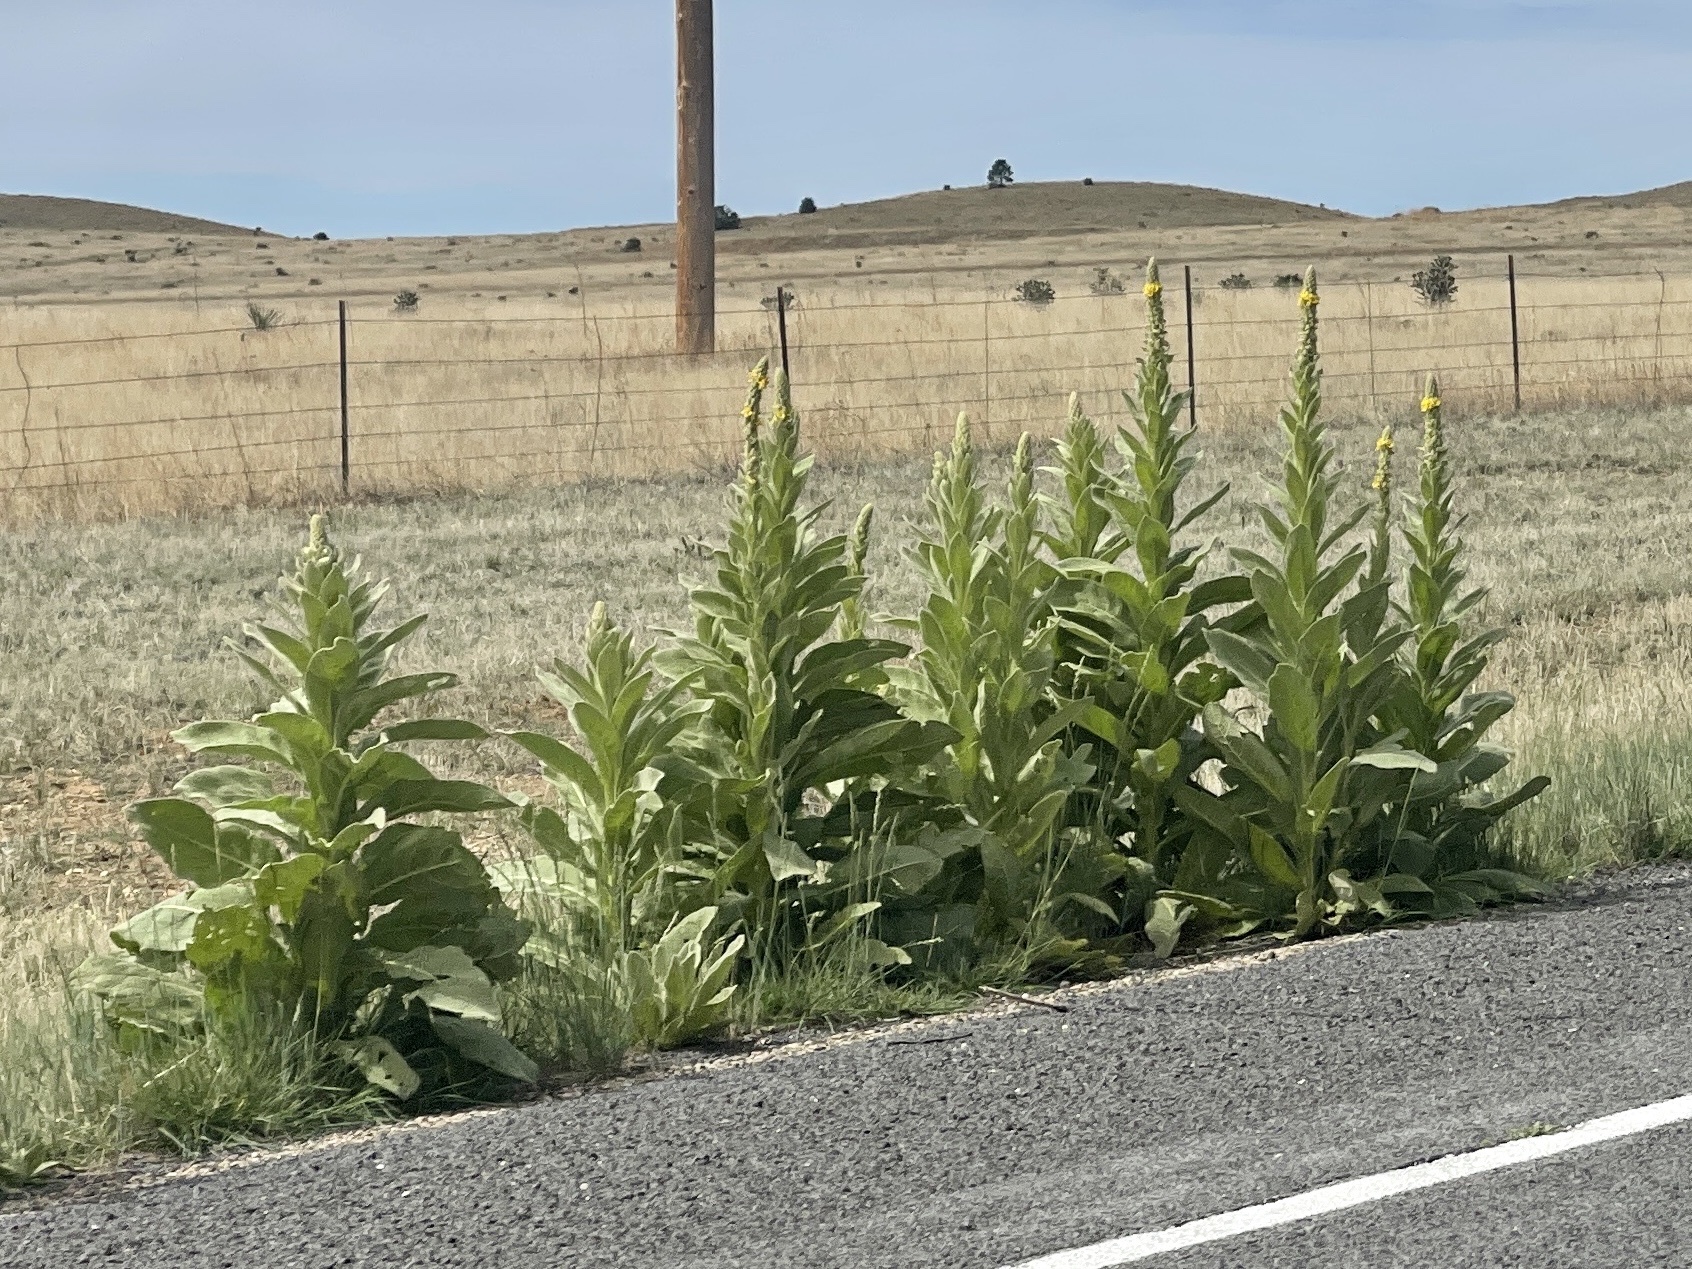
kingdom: Plantae
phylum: Tracheophyta
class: Magnoliopsida
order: Lamiales
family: Scrophulariaceae
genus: Verbascum
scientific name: Verbascum thapsus
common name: Common mullein
